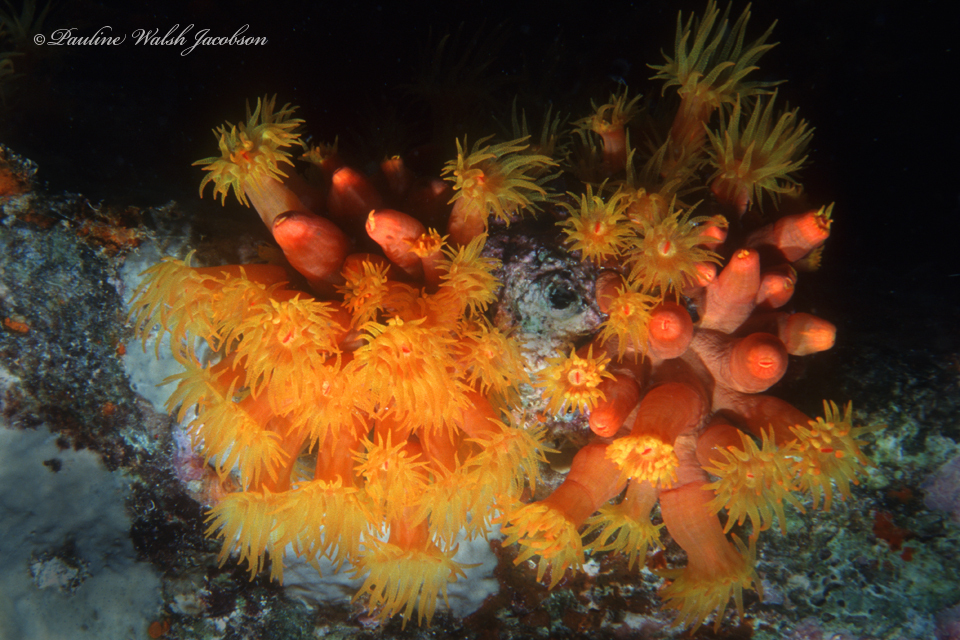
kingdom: Animalia
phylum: Cnidaria
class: Anthozoa
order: Scleractinia
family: Dendrophylliidae
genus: Tubastraea
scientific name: Tubastraea coccinea
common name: Orange cup coral
